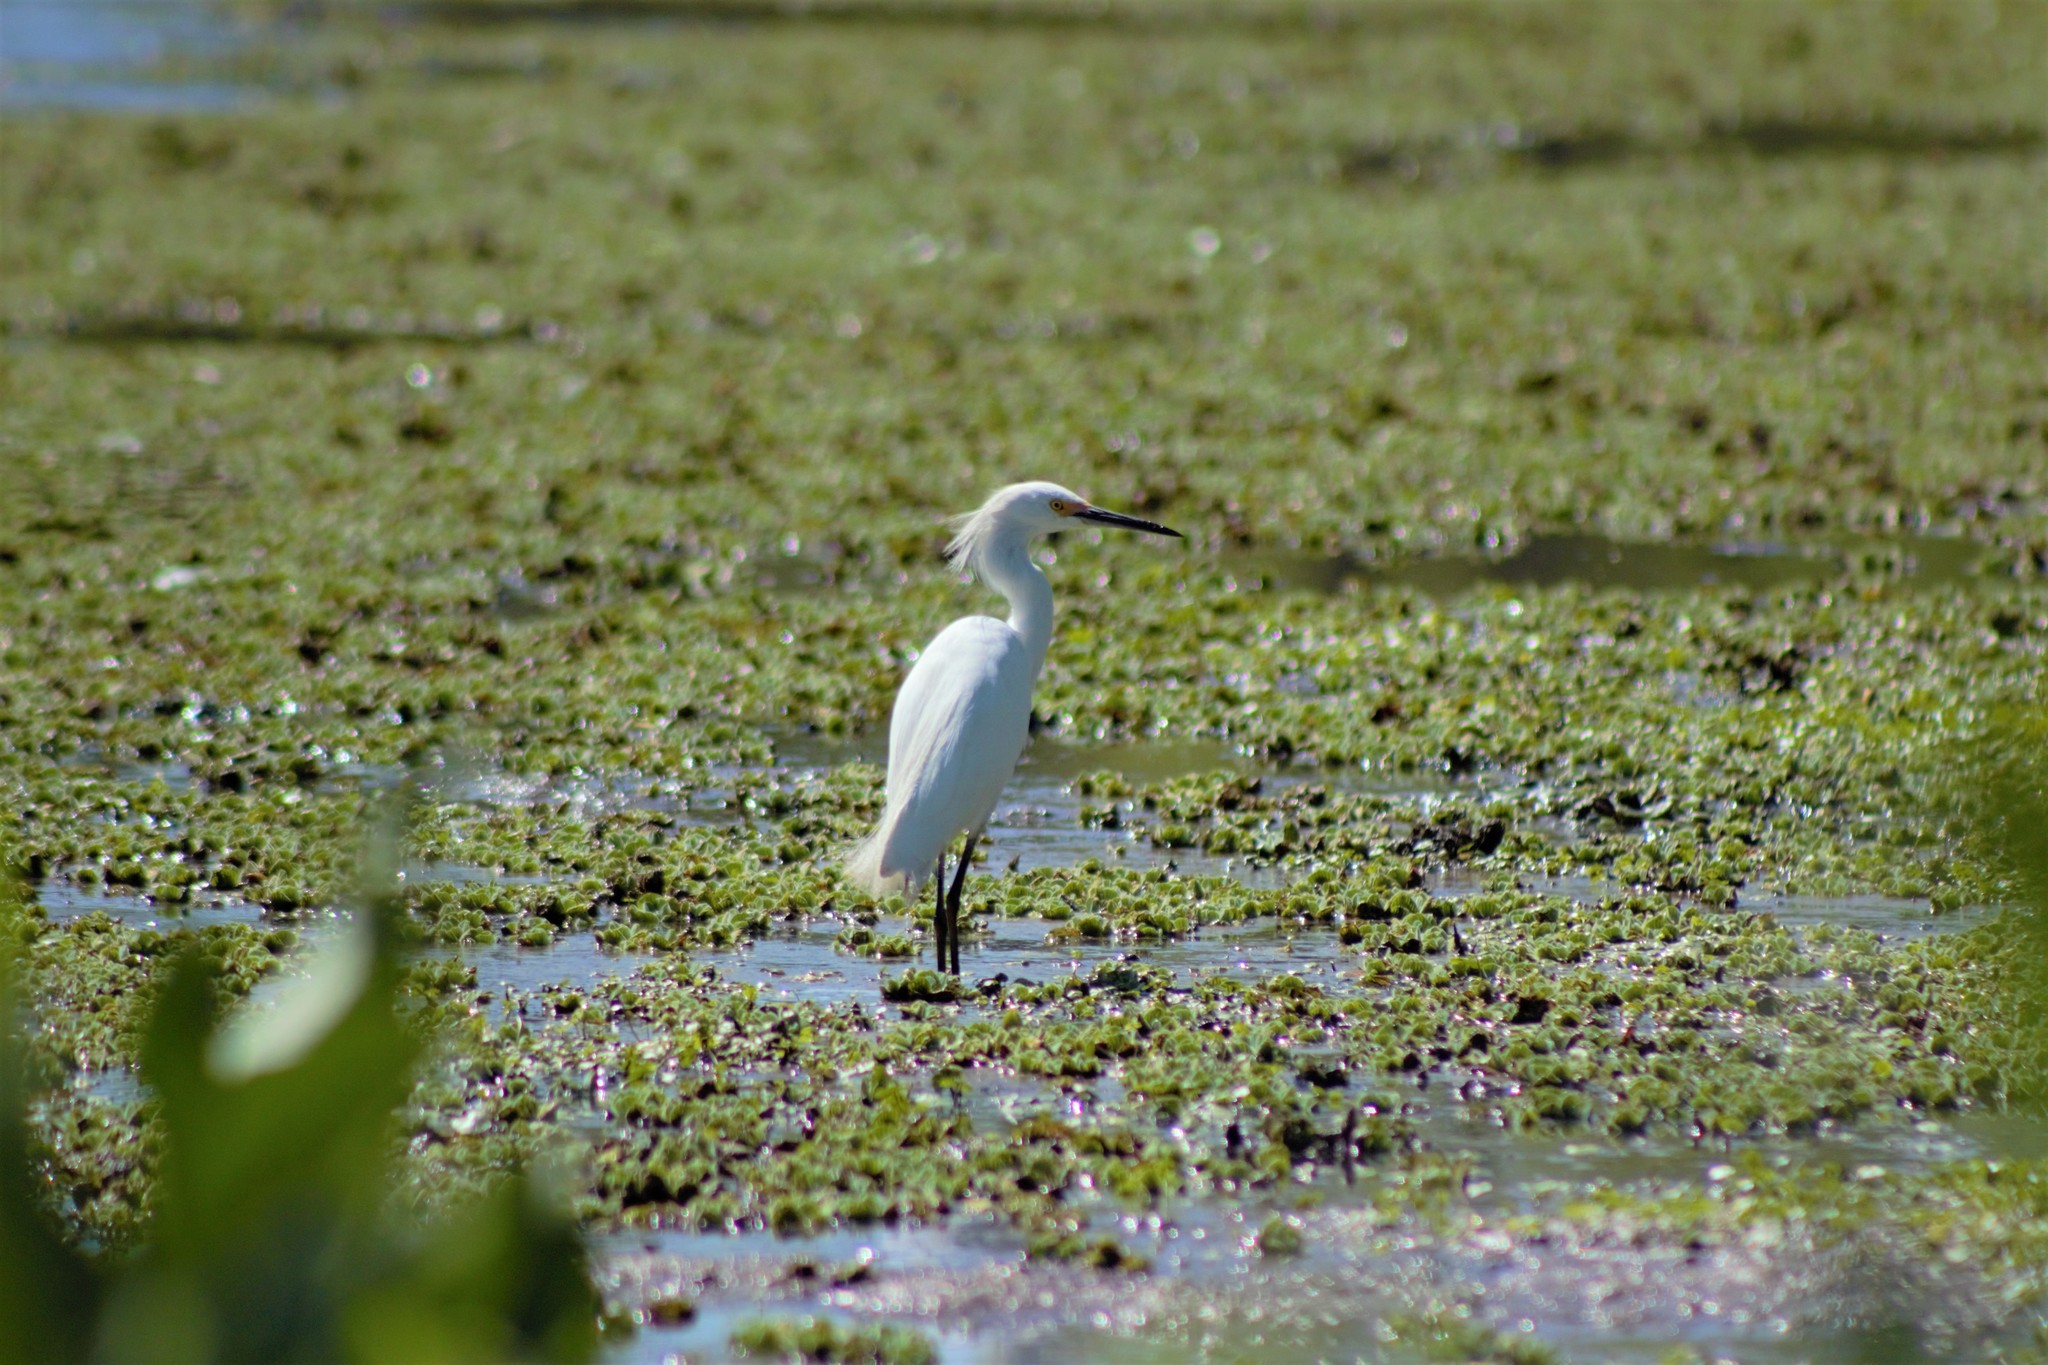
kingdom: Animalia
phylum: Chordata
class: Aves
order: Pelecaniformes
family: Ardeidae
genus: Egretta
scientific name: Egretta thula
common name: Snowy egret
